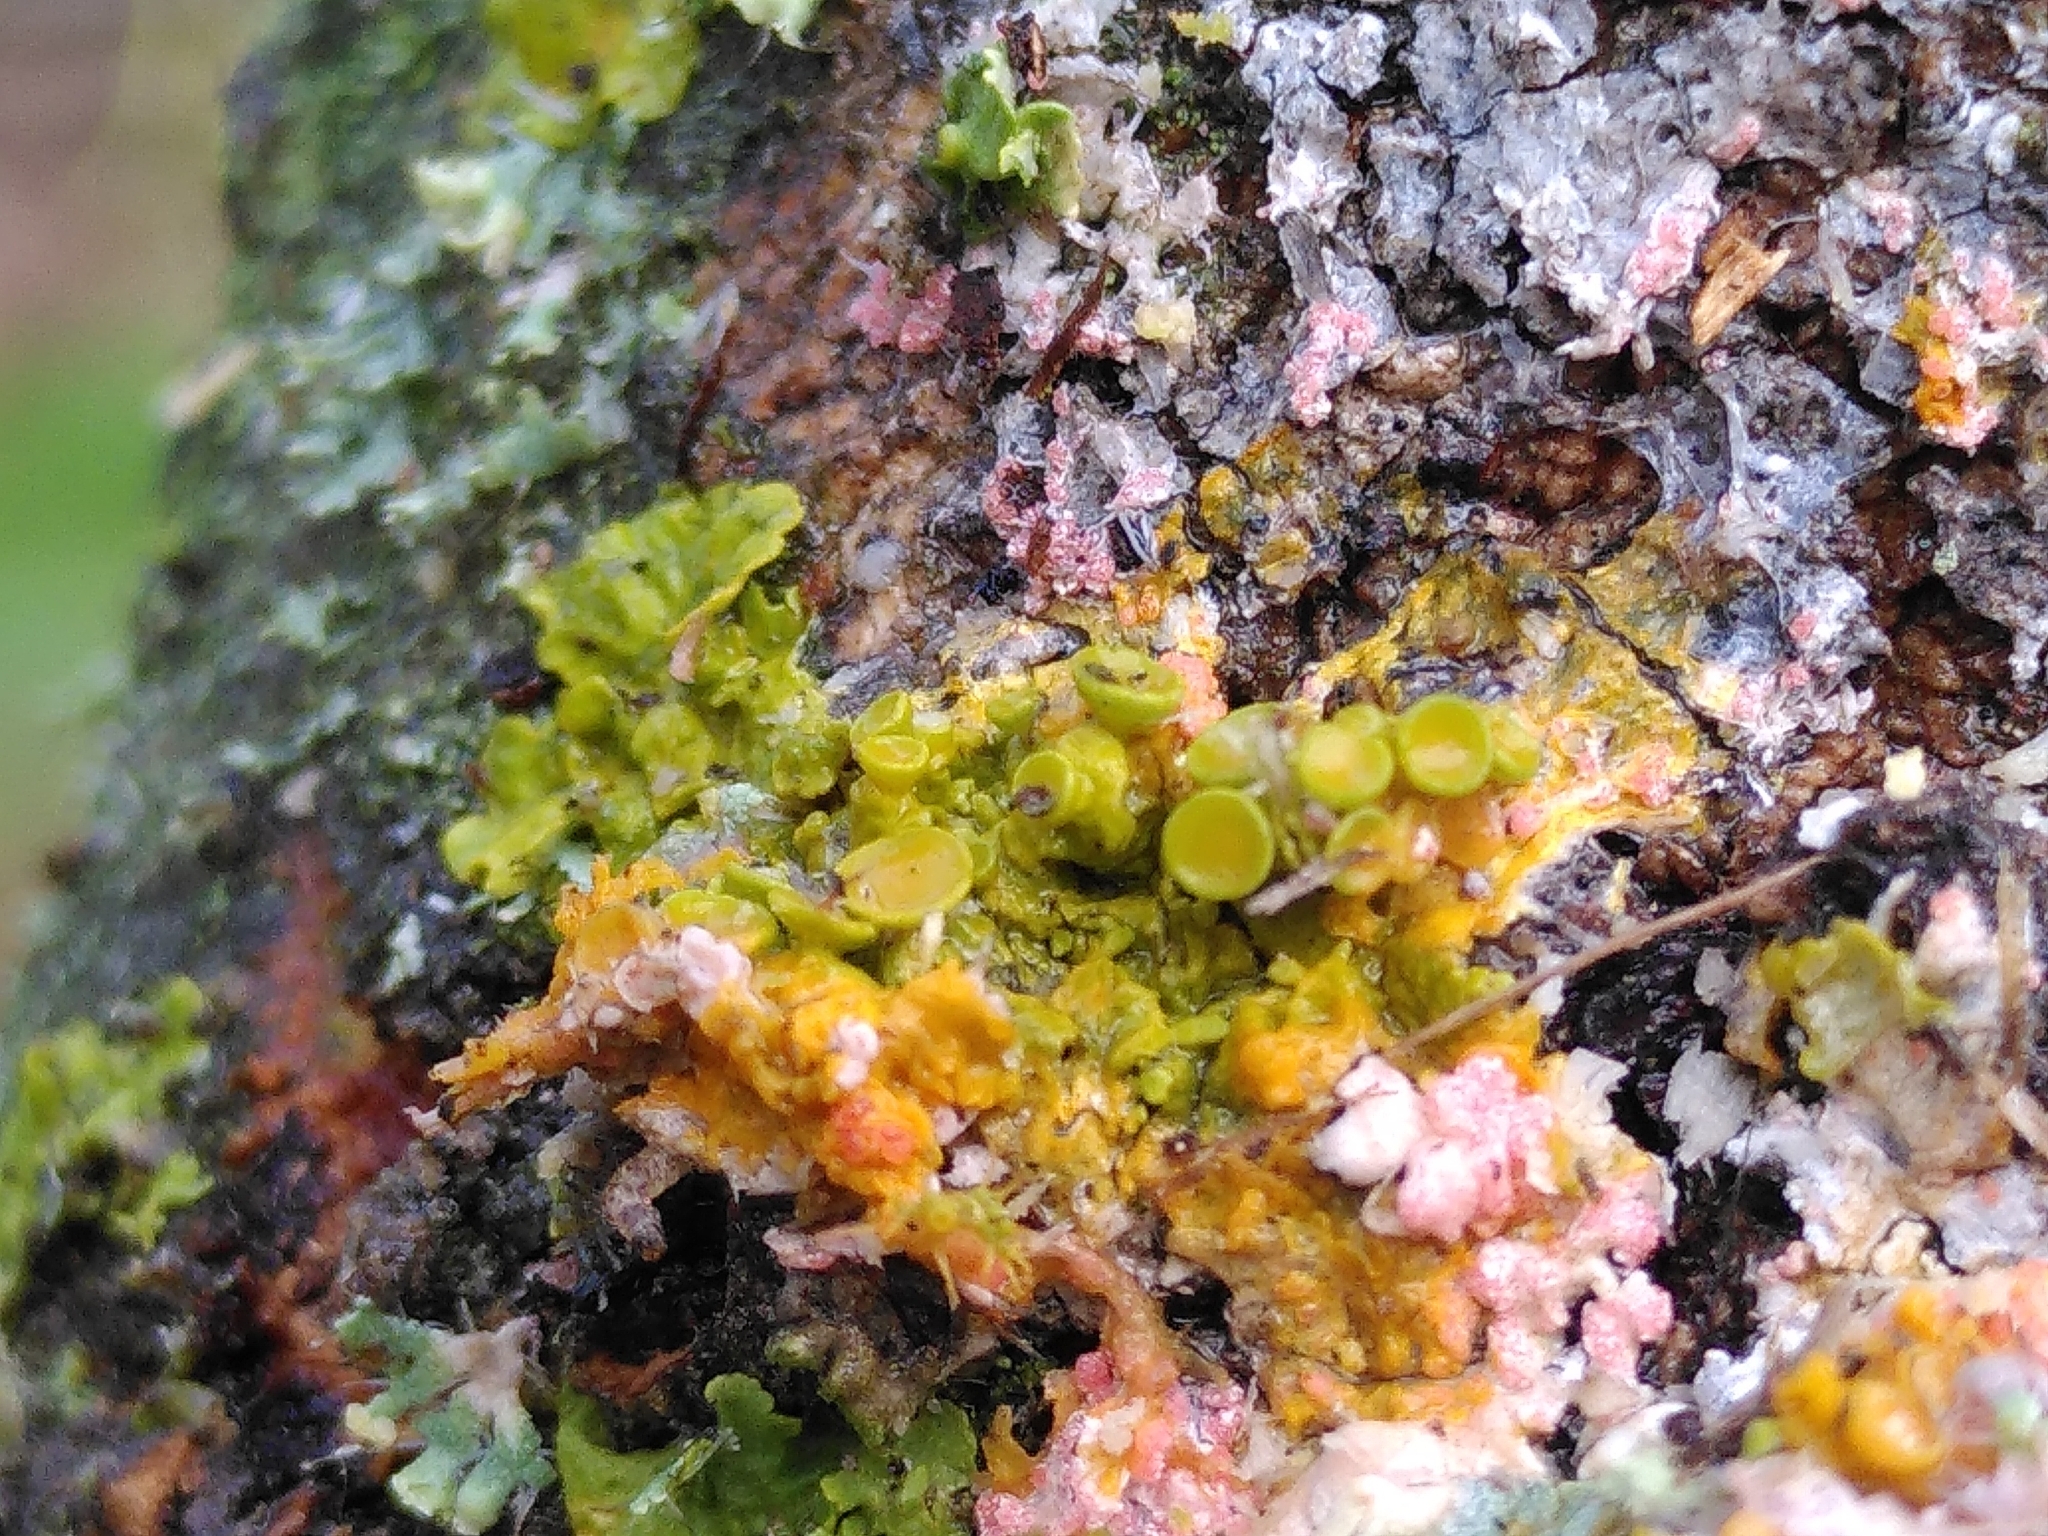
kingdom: Fungi
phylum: Ascomycota
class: Lecanoromycetes
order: Teloschistales
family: Teloschistaceae
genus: Xanthoria
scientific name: Xanthoria parietina
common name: Common orange lichen
